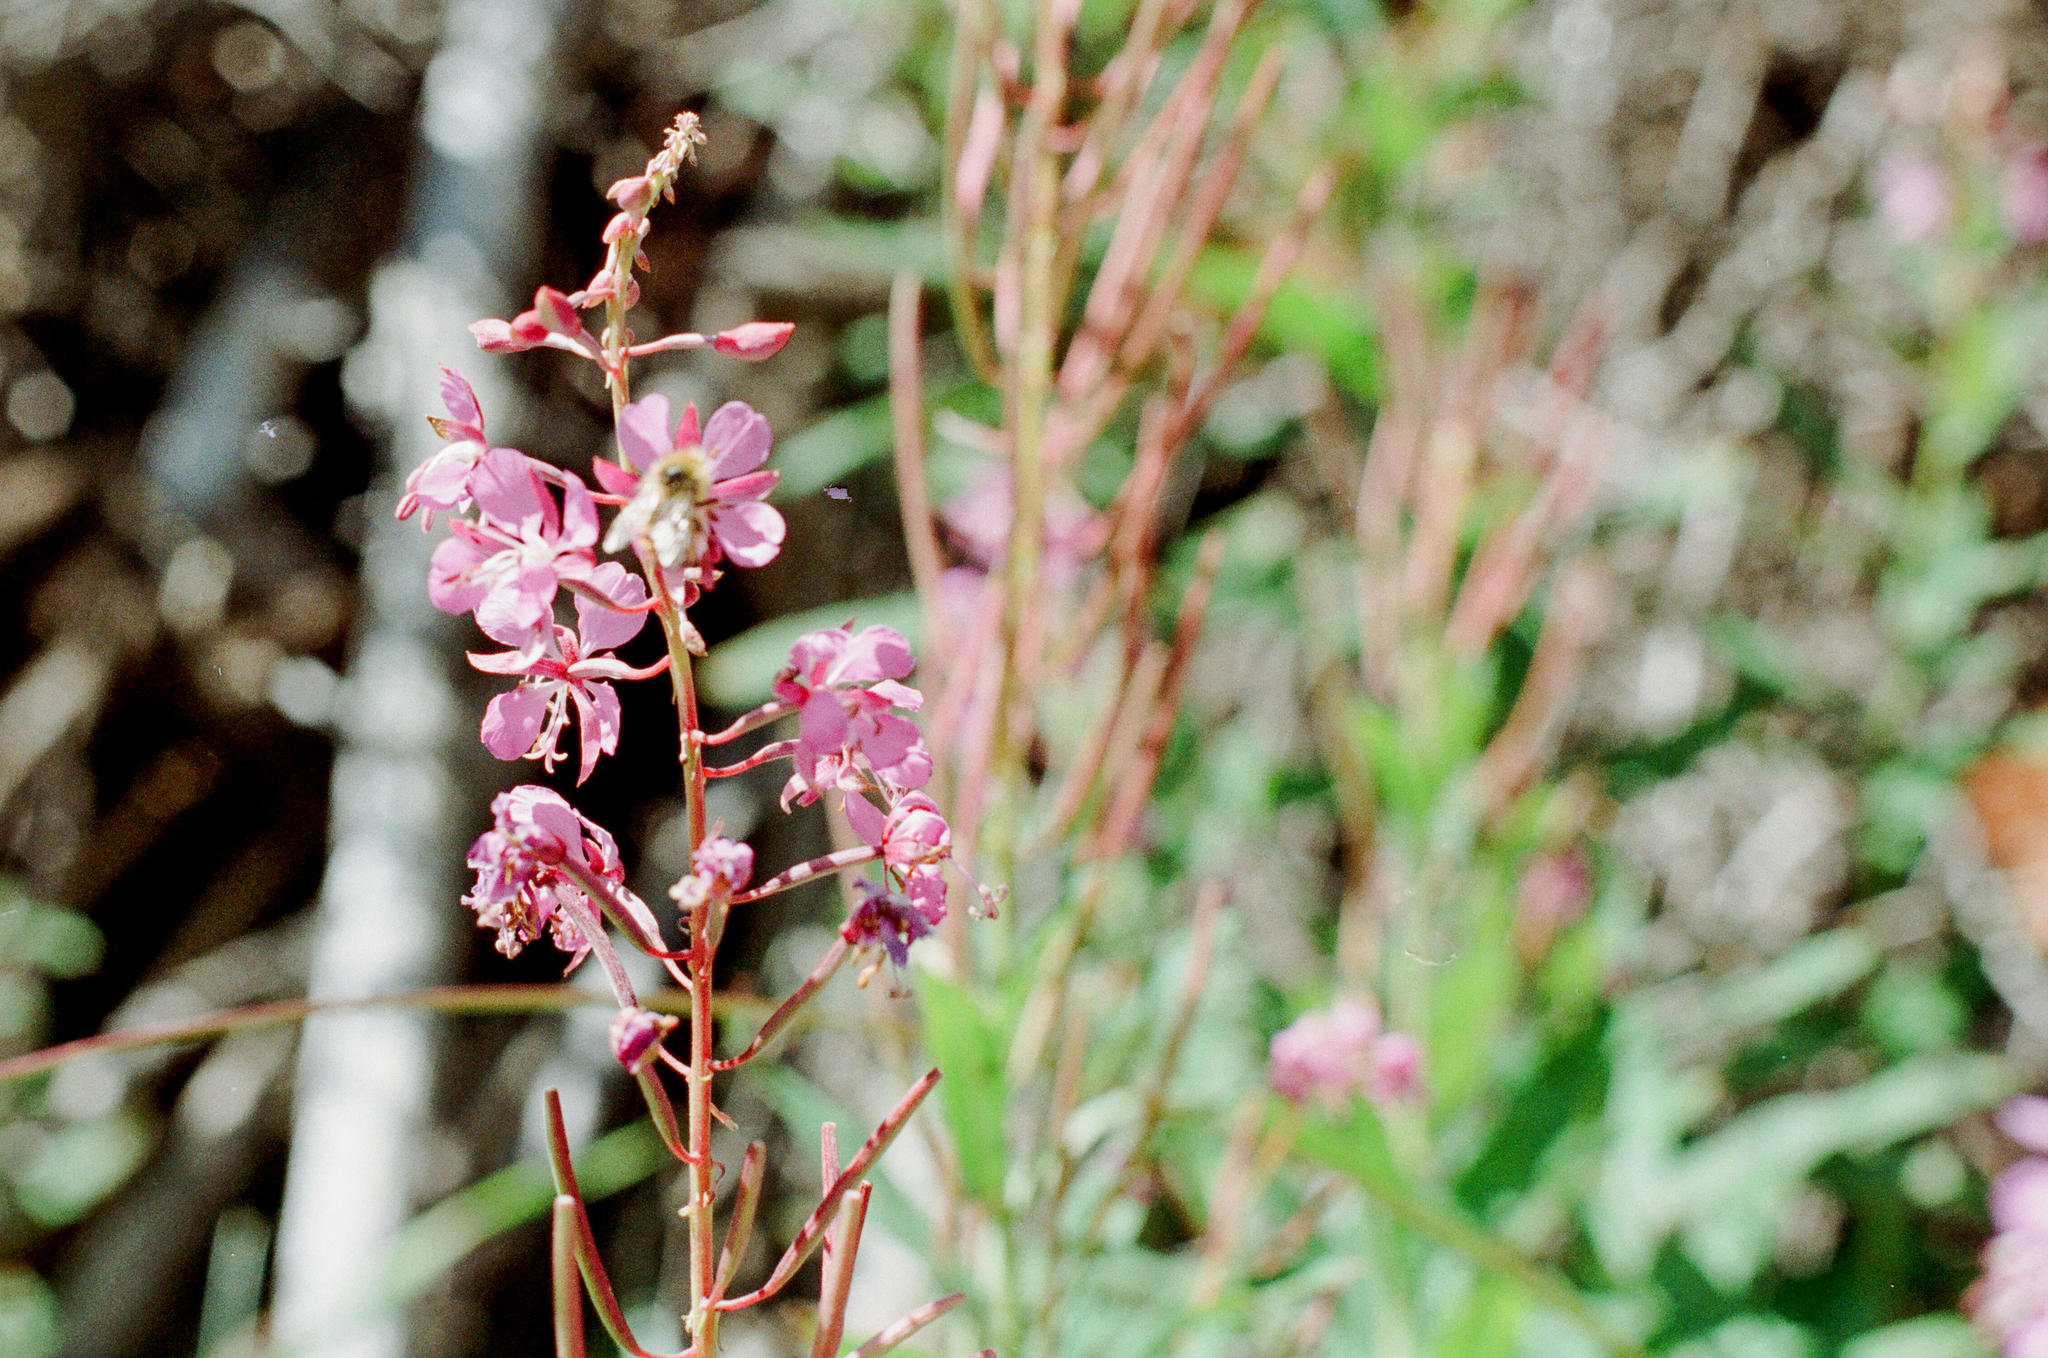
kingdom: Plantae
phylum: Tracheophyta
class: Magnoliopsida
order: Myrtales
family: Onagraceae
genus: Chamaenerion
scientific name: Chamaenerion angustifolium
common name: Fireweed
